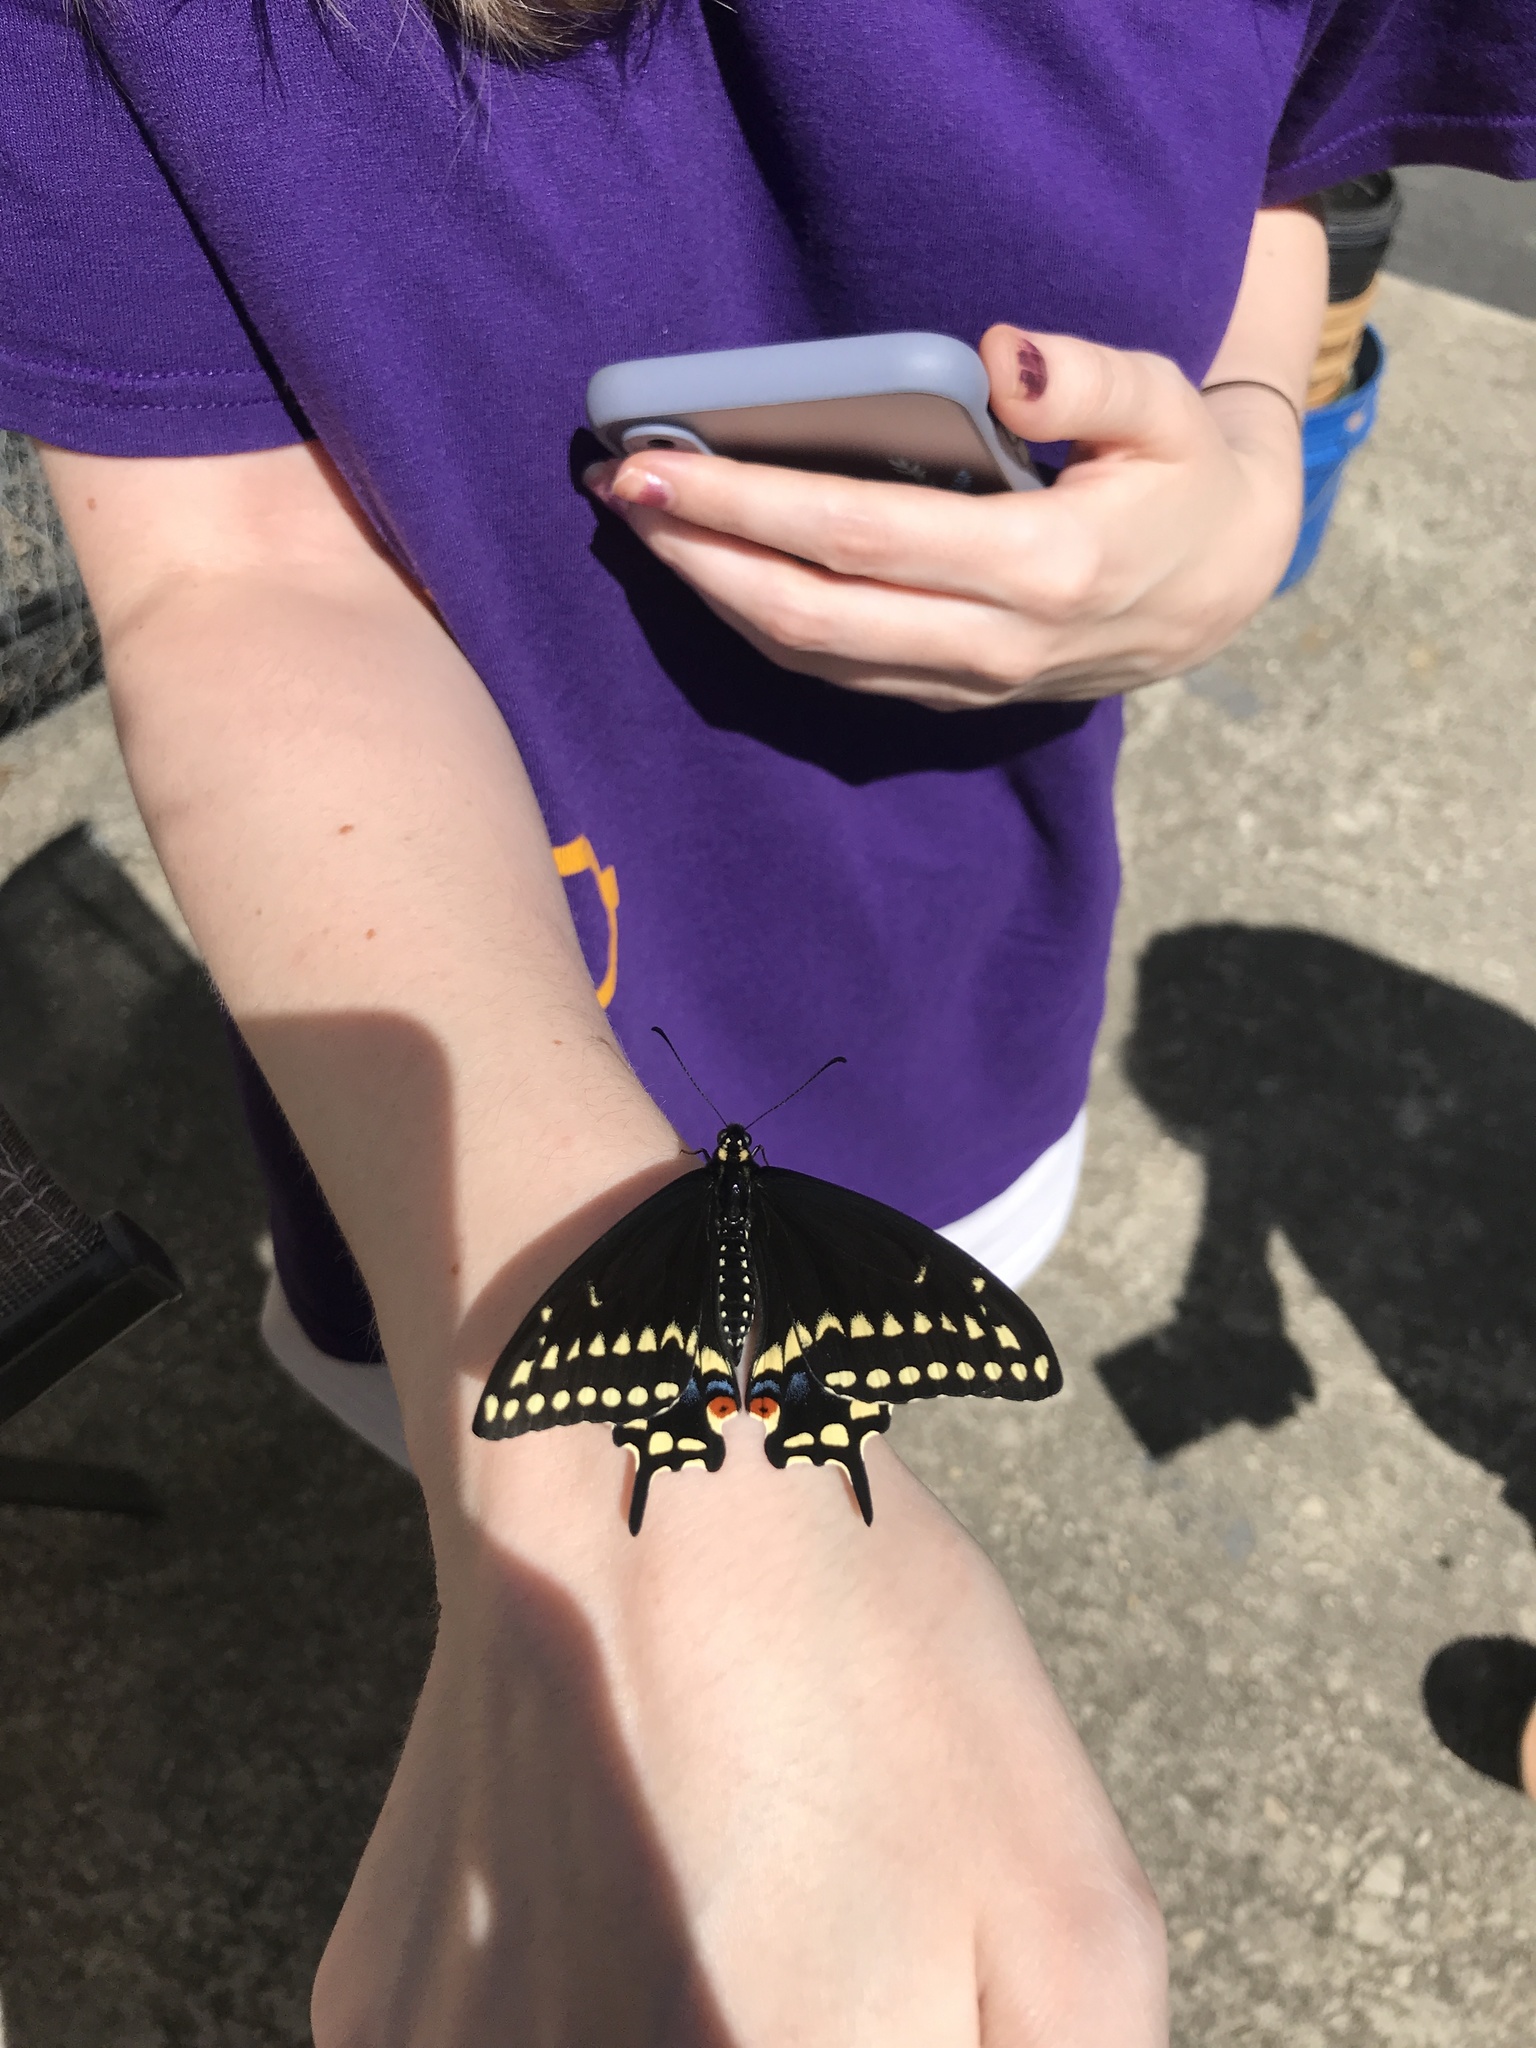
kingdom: Animalia
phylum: Arthropoda
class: Insecta
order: Lepidoptera
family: Papilionidae
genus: Papilio
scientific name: Papilio polyxenes
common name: Black swallowtail
